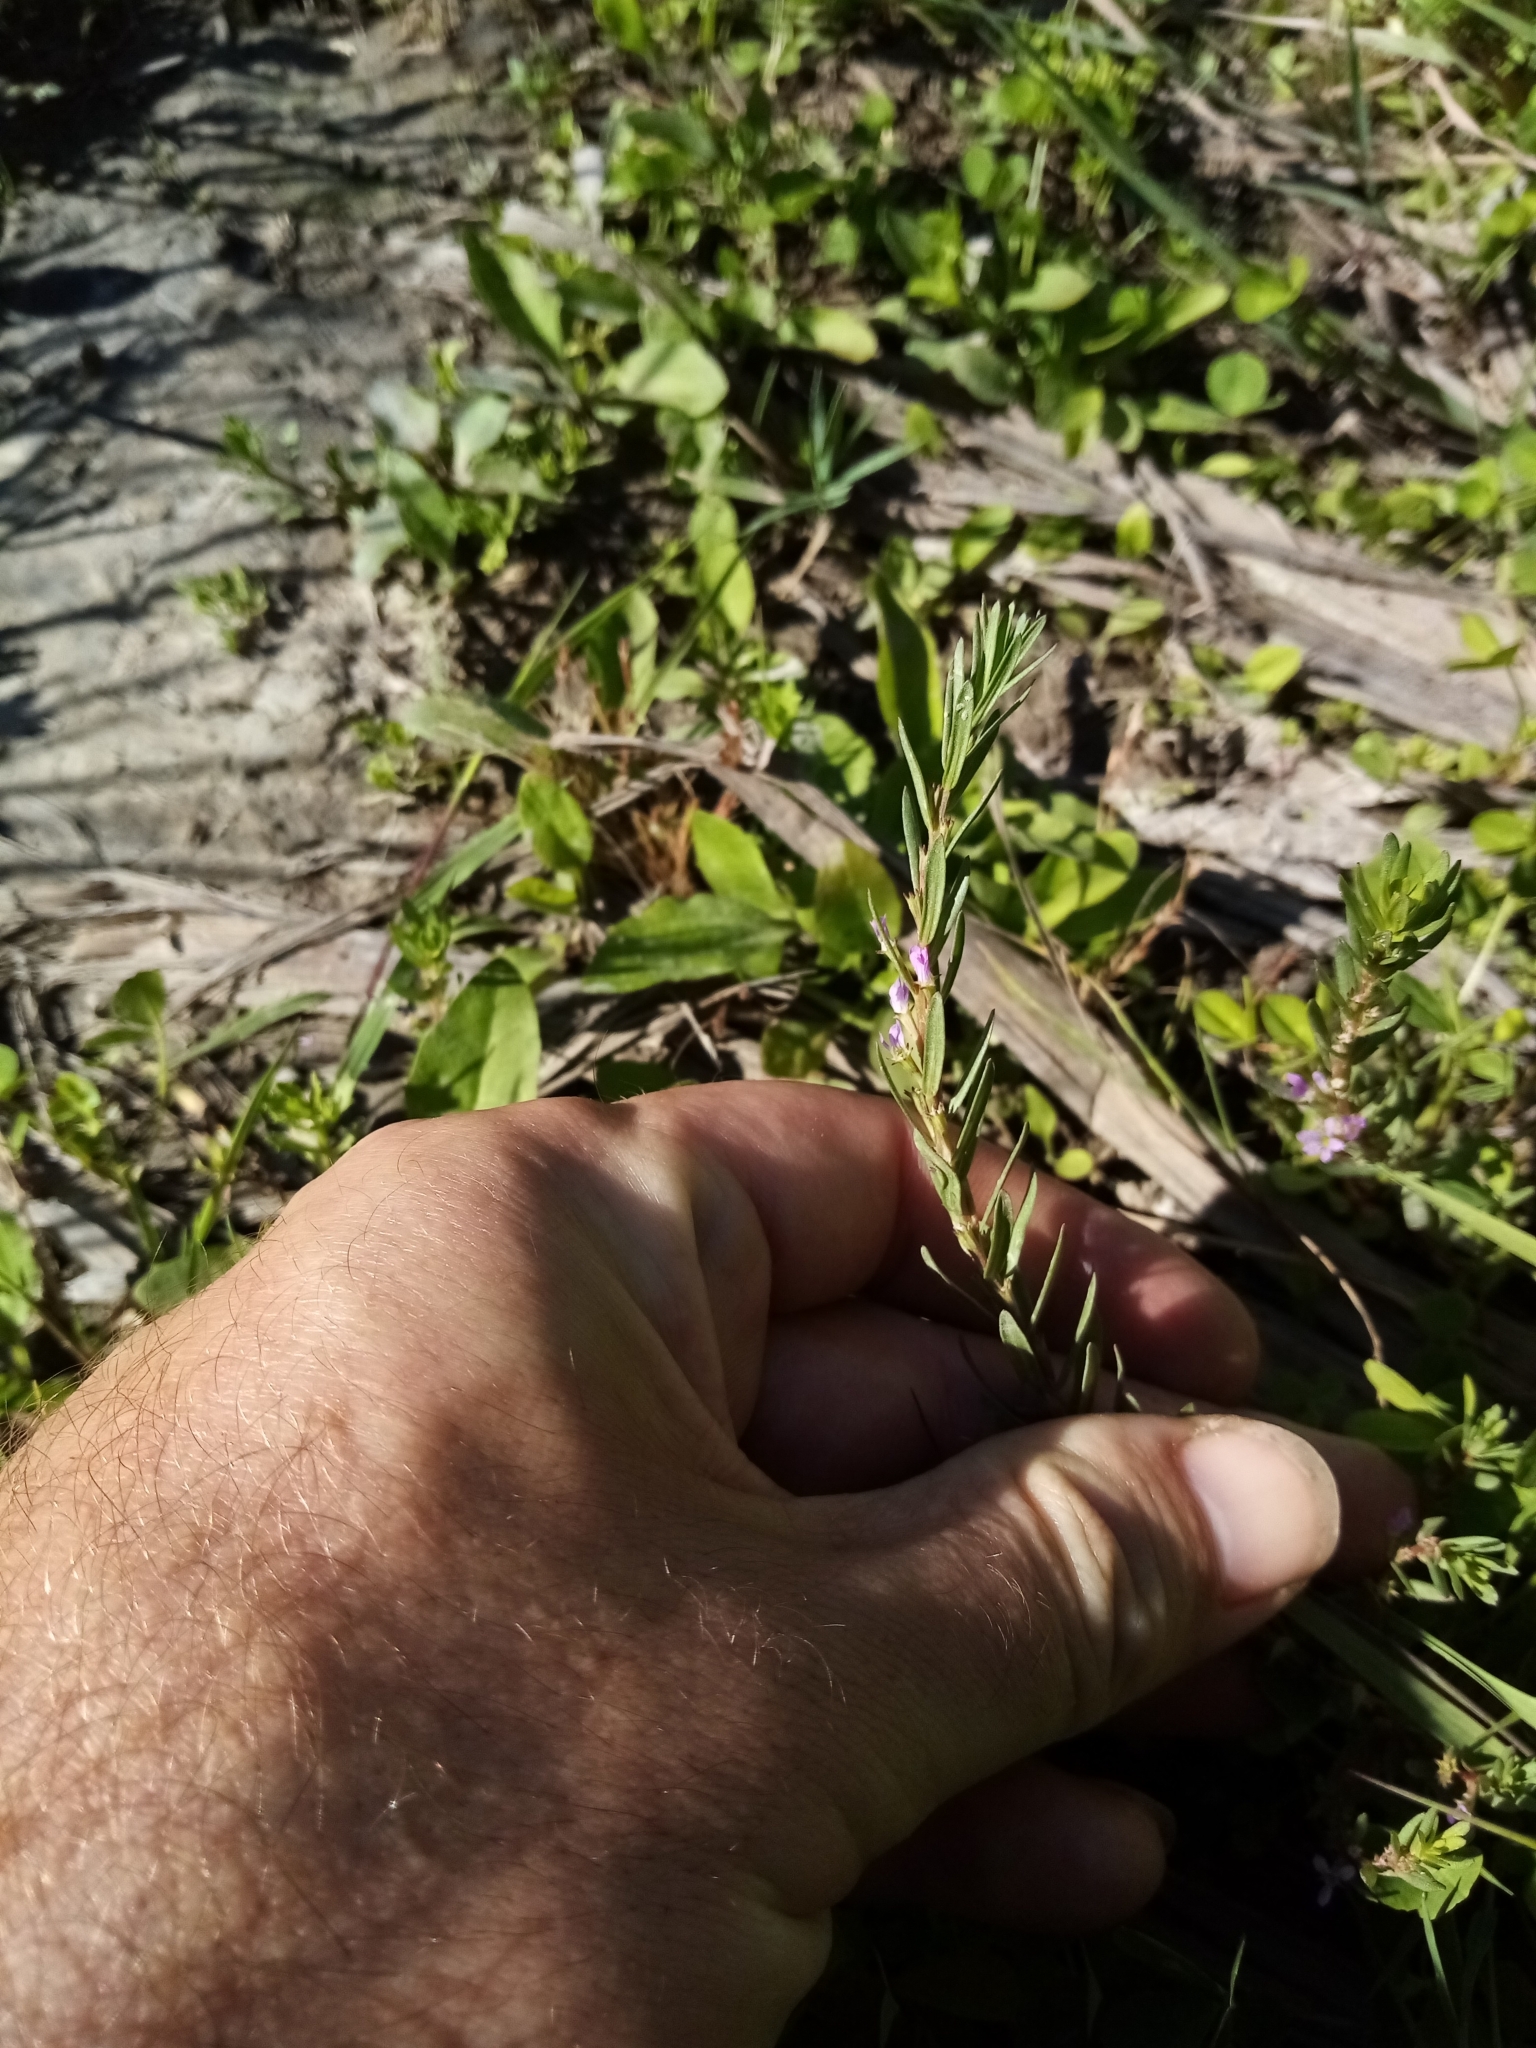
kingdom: Plantae
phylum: Tracheophyta
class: Magnoliopsida
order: Myrtales
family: Lythraceae
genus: Lythrum
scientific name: Lythrum hyssopifolia
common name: Grass-poly
